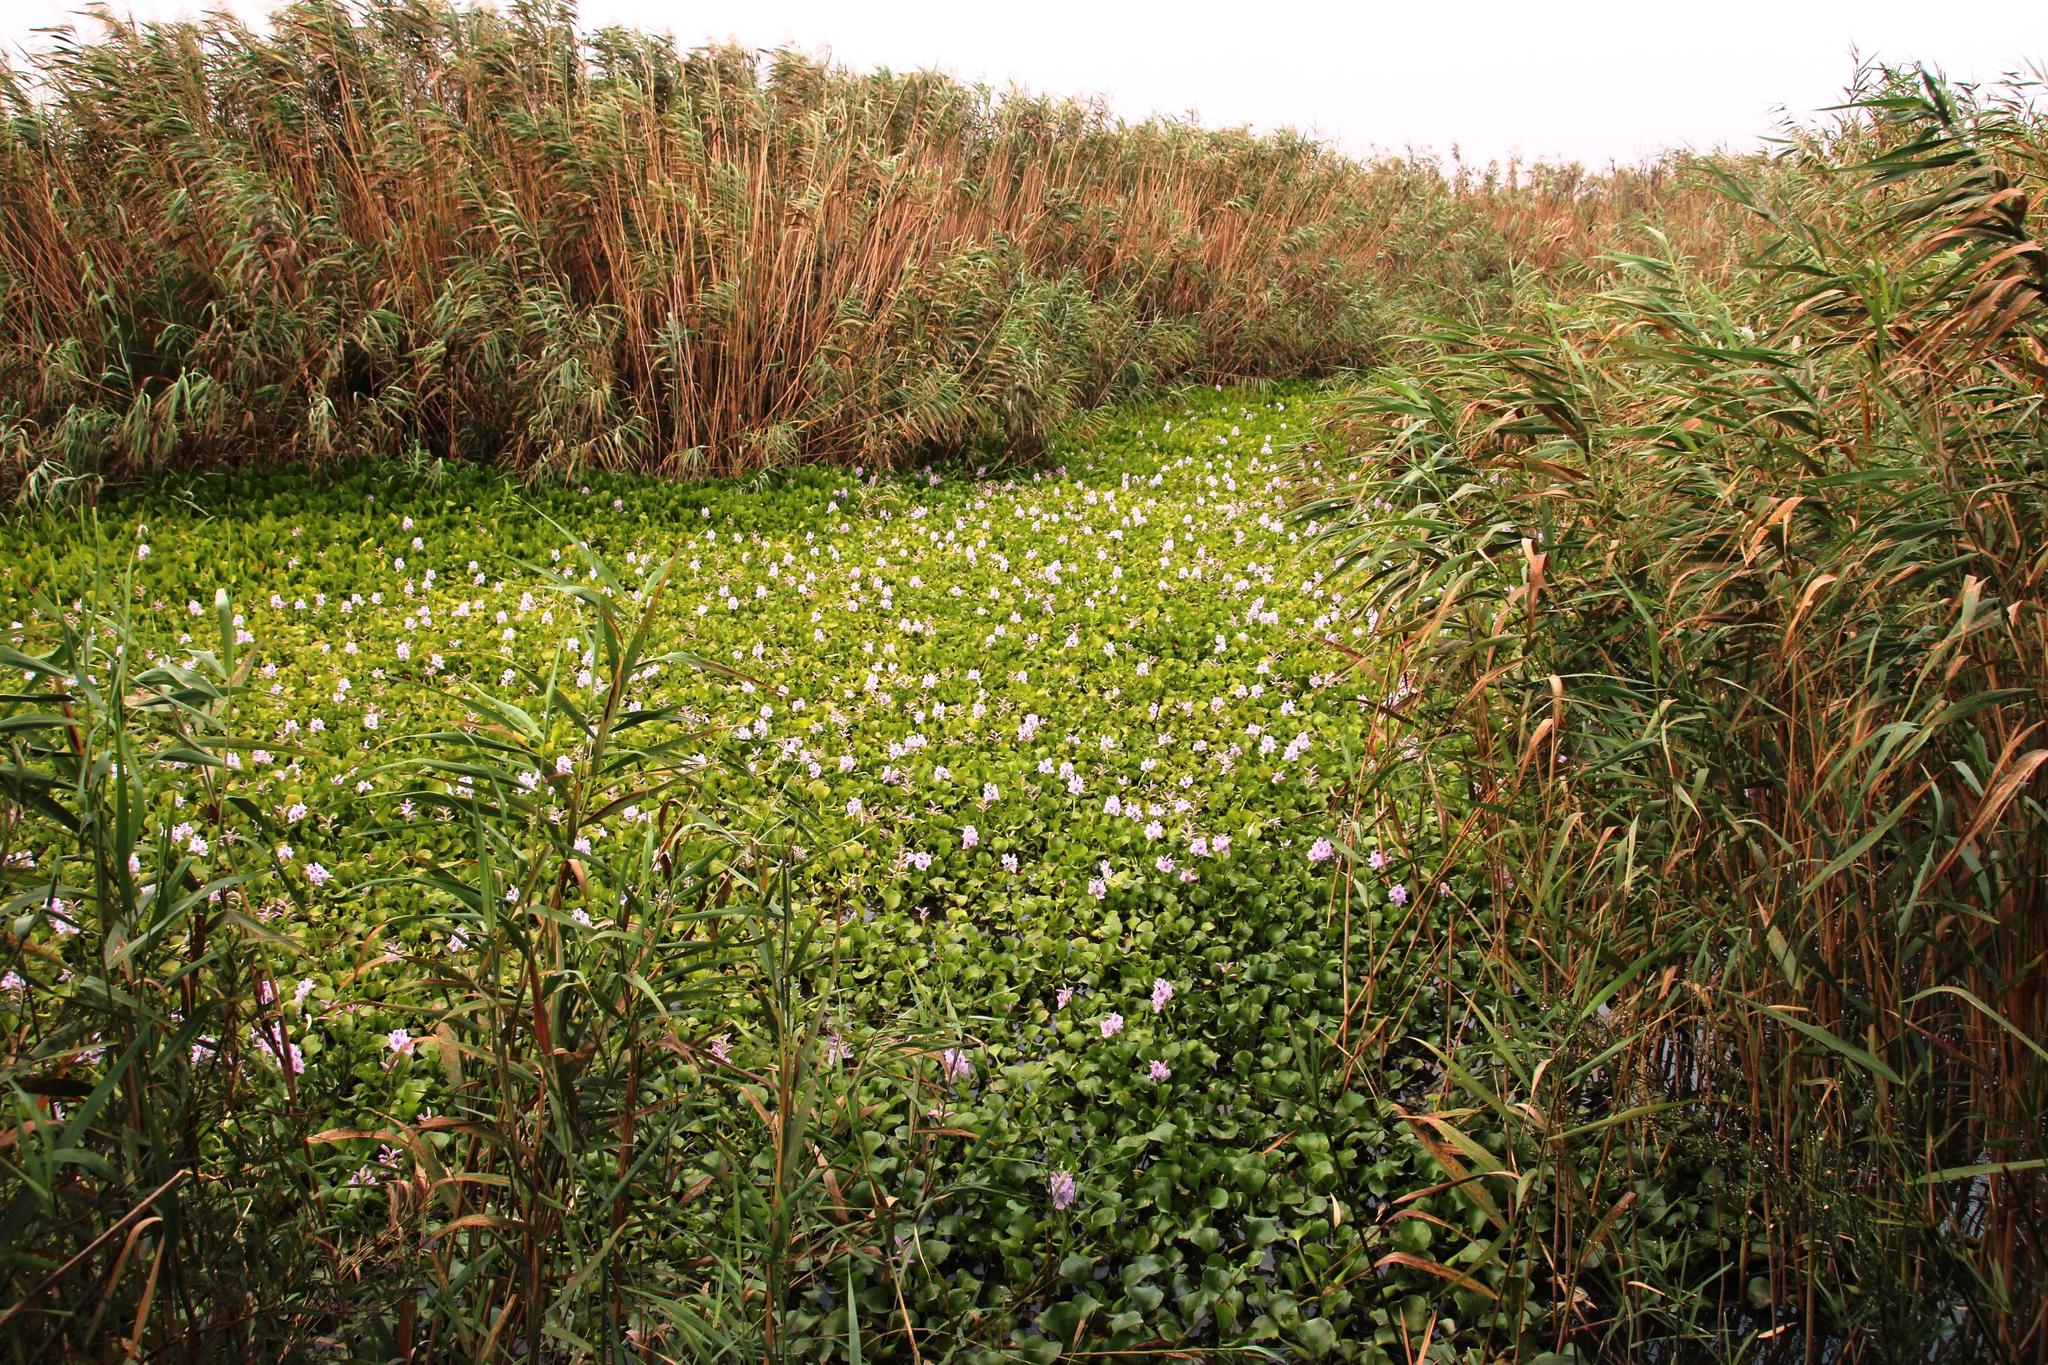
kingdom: Plantae
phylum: Tracheophyta
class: Liliopsida
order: Commelinales
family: Pontederiaceae
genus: Pontederia
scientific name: Pontederia crassipes
